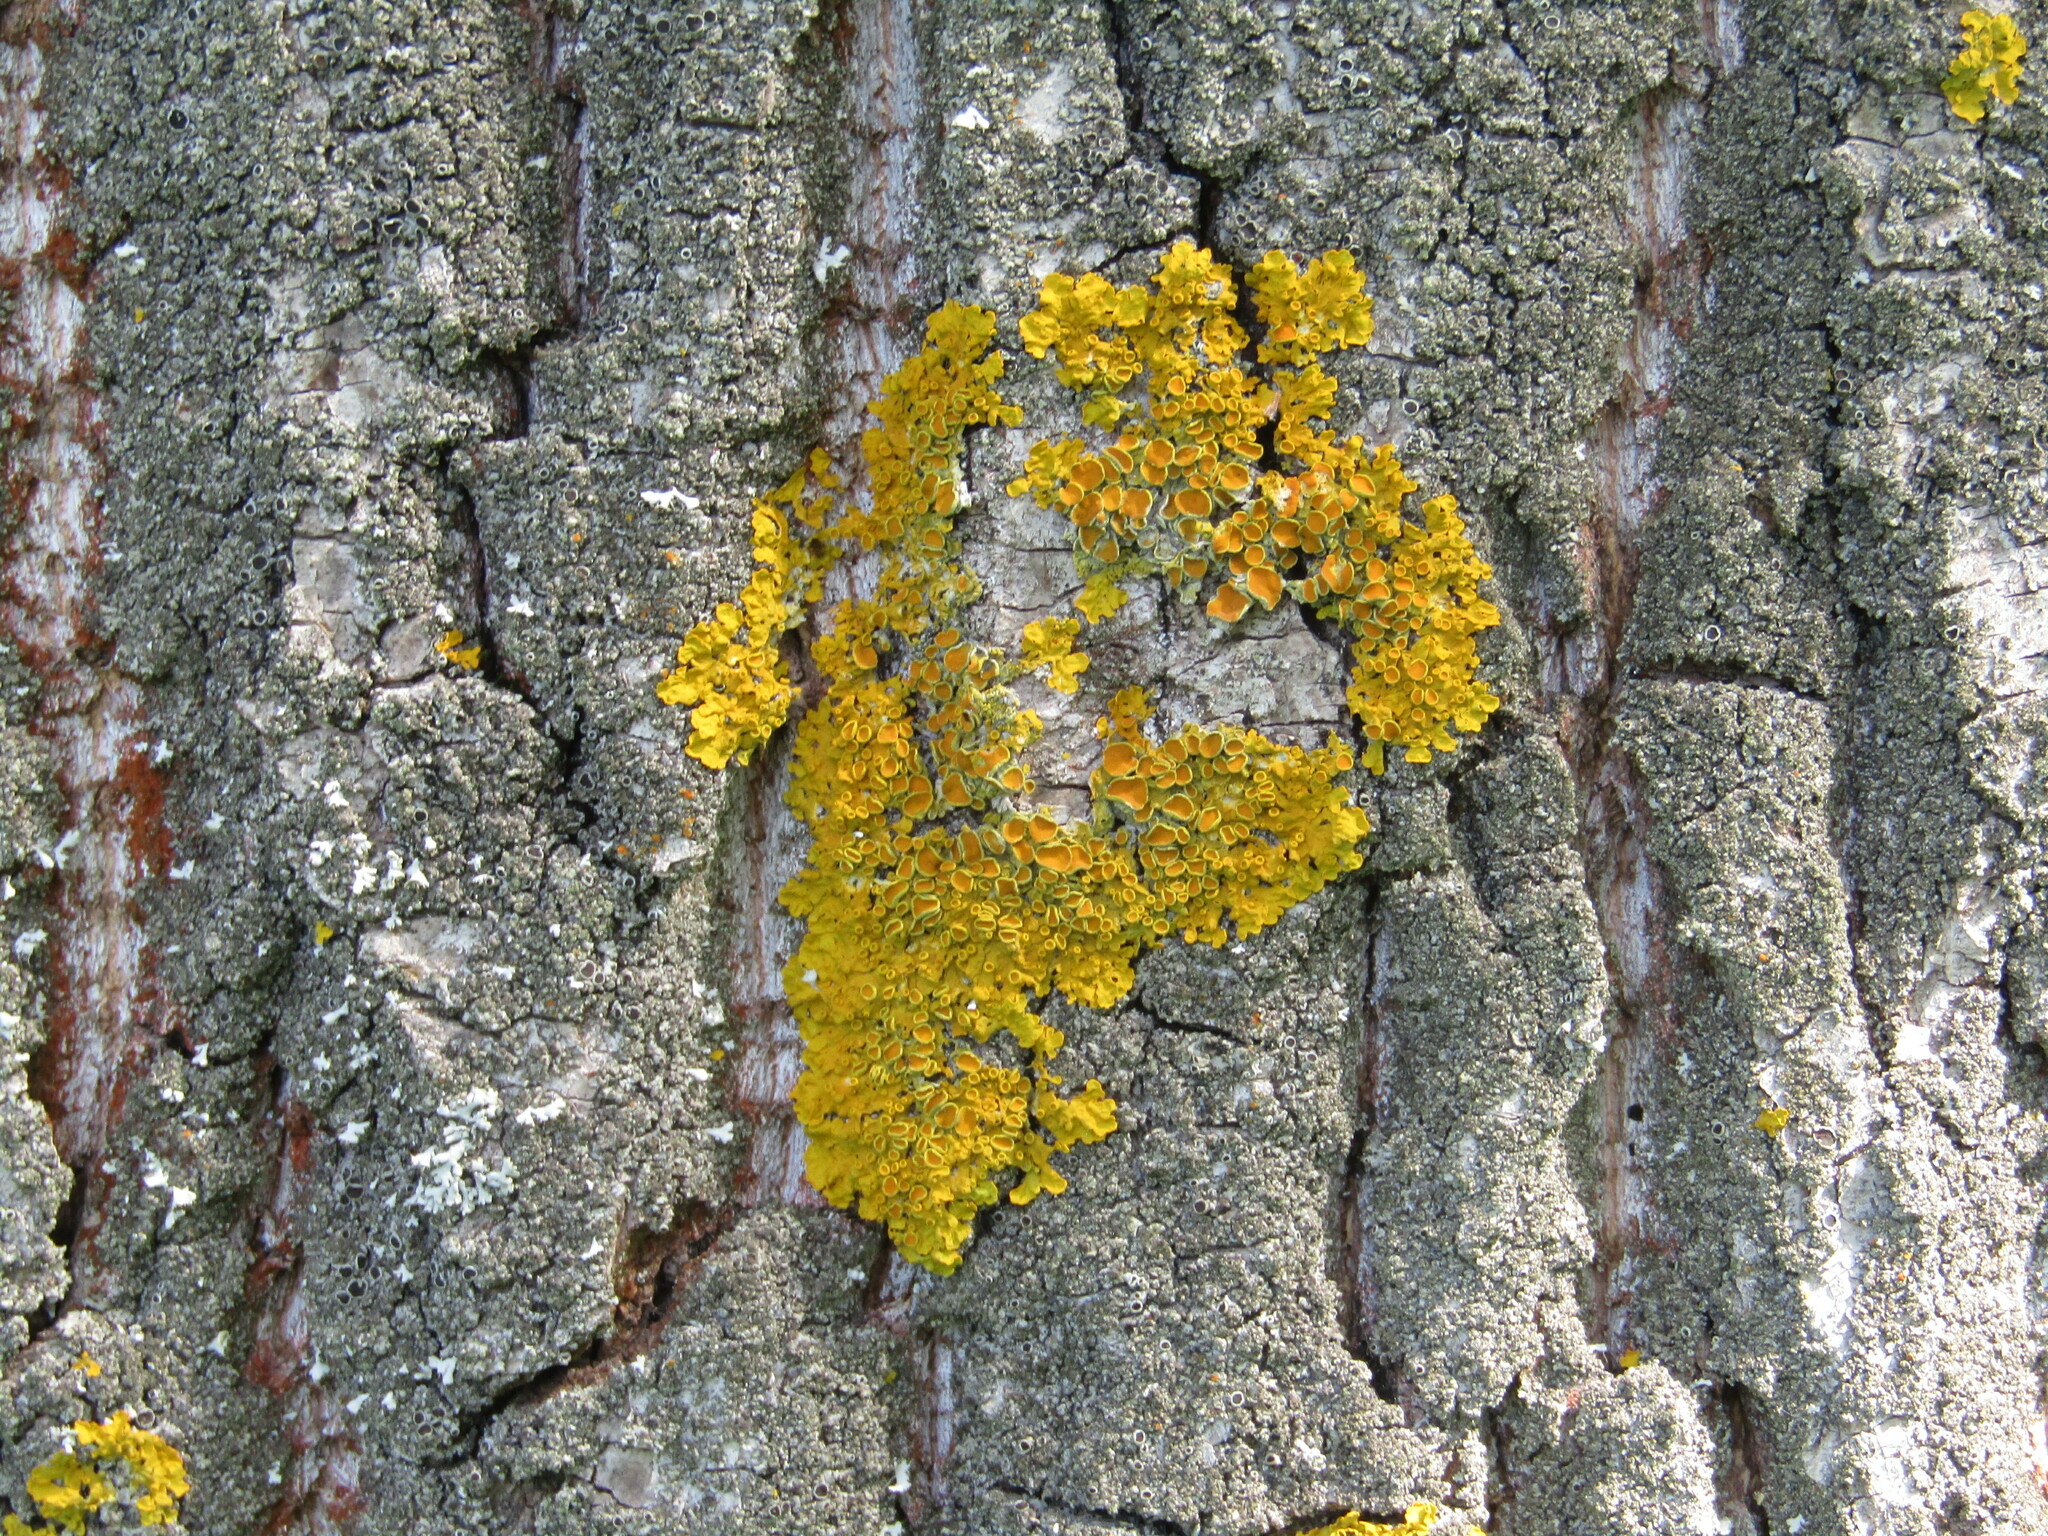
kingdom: Fungi
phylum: Ascomycota
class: Lecanoromycetes
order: Teloschistales
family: Teloschistaceae
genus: Xanthoria
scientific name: Xanthoria parietina
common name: Common orange lichen
